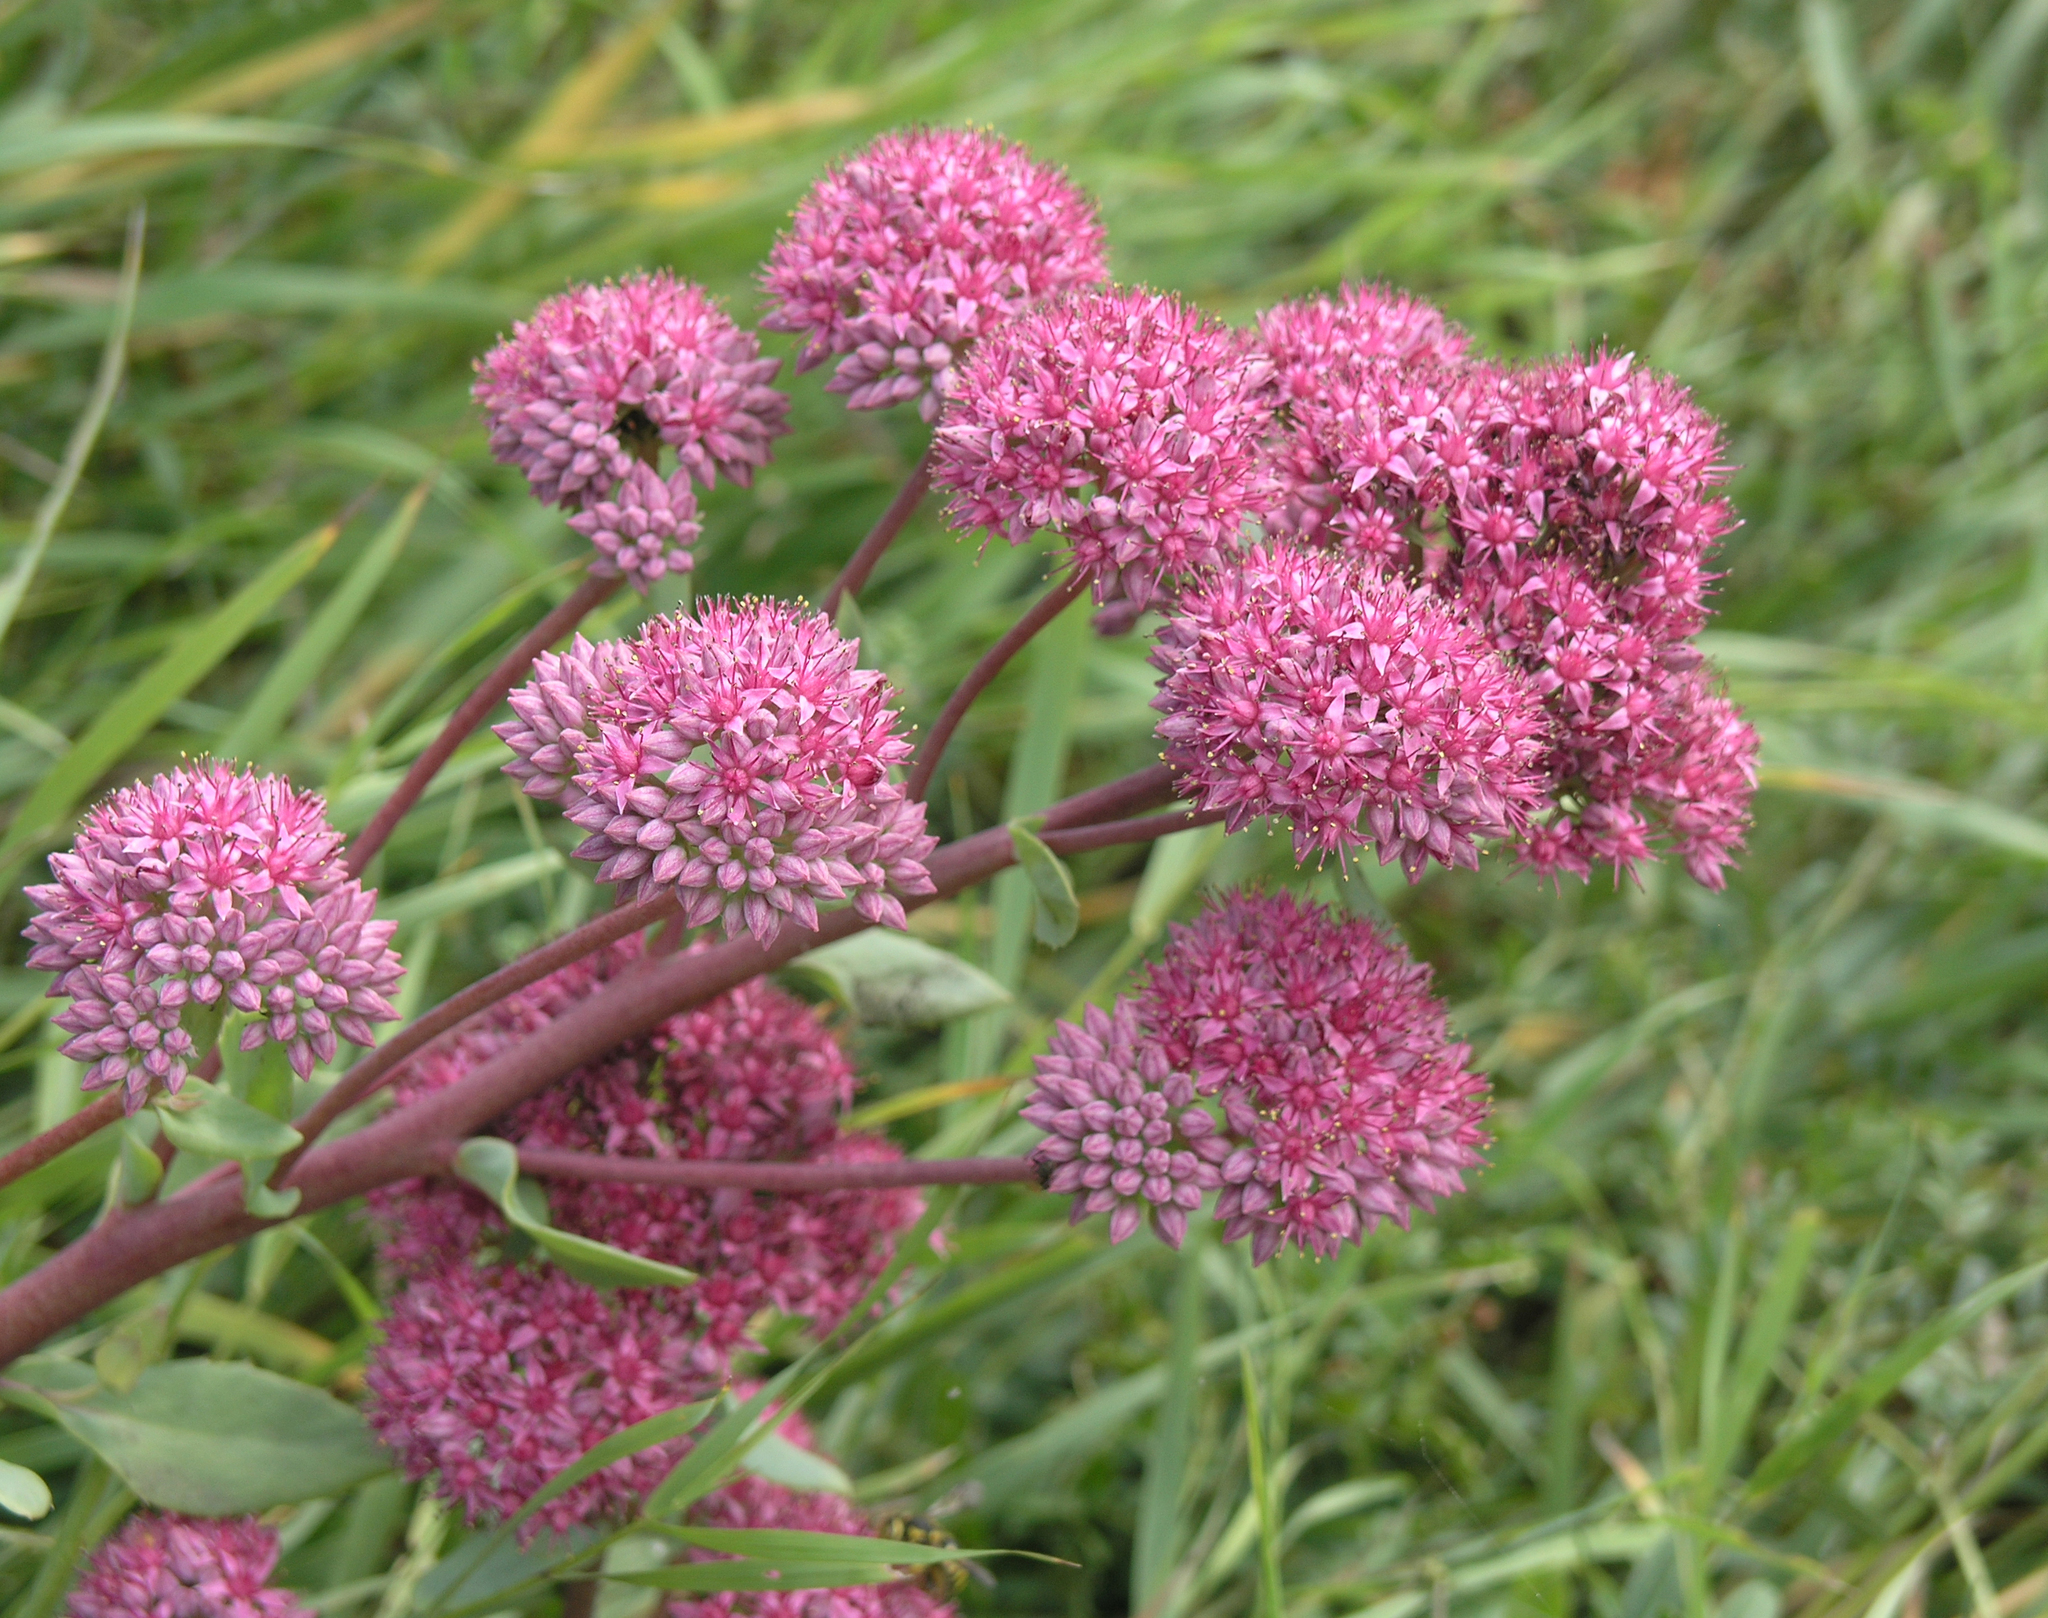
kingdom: Plantae
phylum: Tracheophyta
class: Magnoliopsida
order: Saxifragales
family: Crassulaceae
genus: Hylotelephium
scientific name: Hylotelephium telephium
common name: Live-forever
